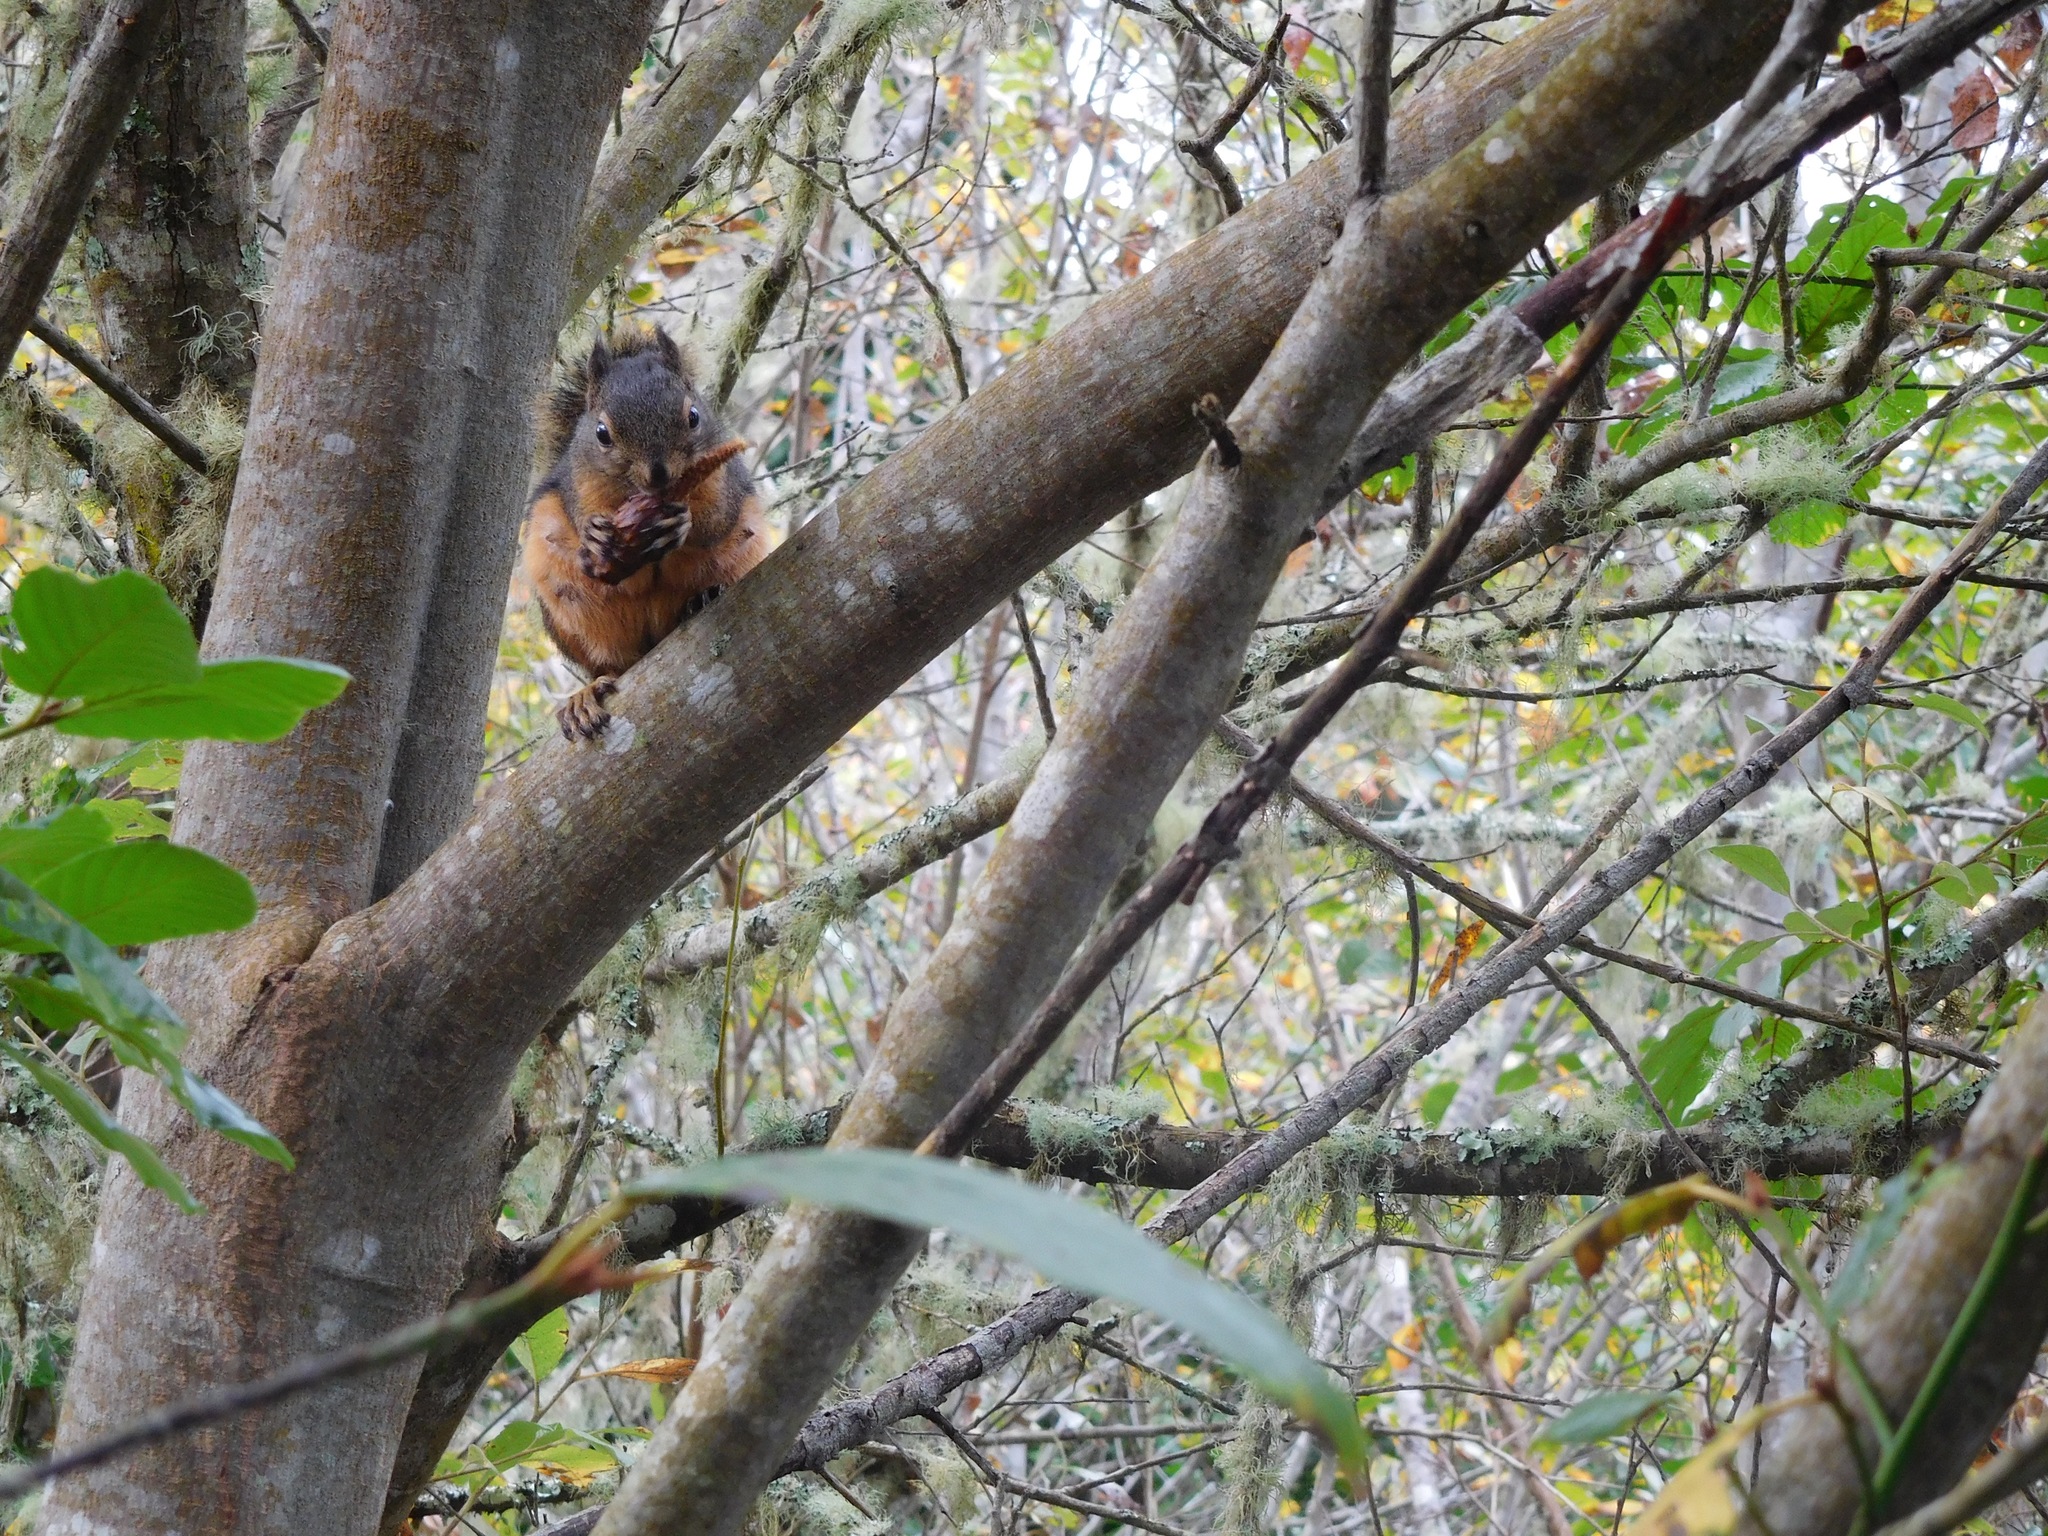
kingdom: Animalia
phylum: Chordata
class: Mammalia
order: Rodentia
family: Sciuridae
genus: Tamiasciurus
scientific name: Tamiasciurus douglasii
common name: Douglas's squirrel
